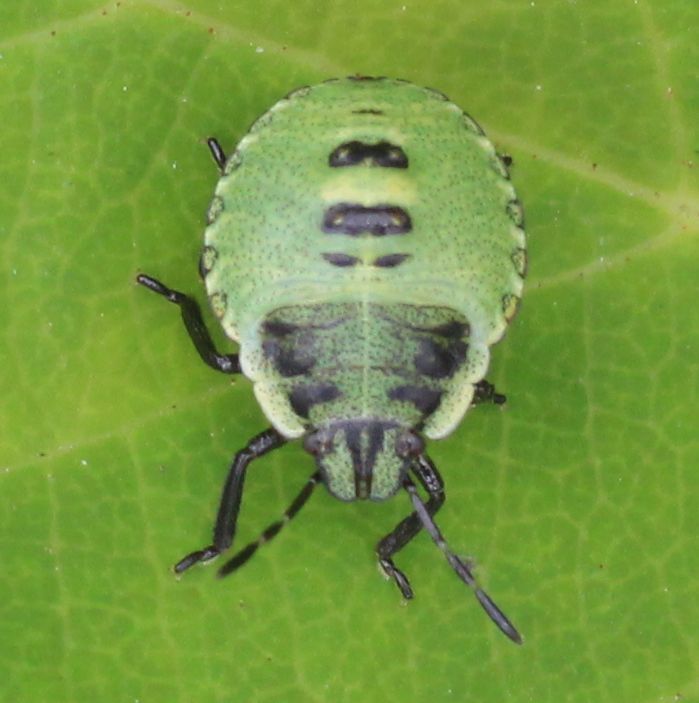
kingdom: Animalia
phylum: Arthropoda
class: Insecta
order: Hemiptera
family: Pentatomidae
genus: Palomena
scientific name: Palomena prasina
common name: Green shieldbug
